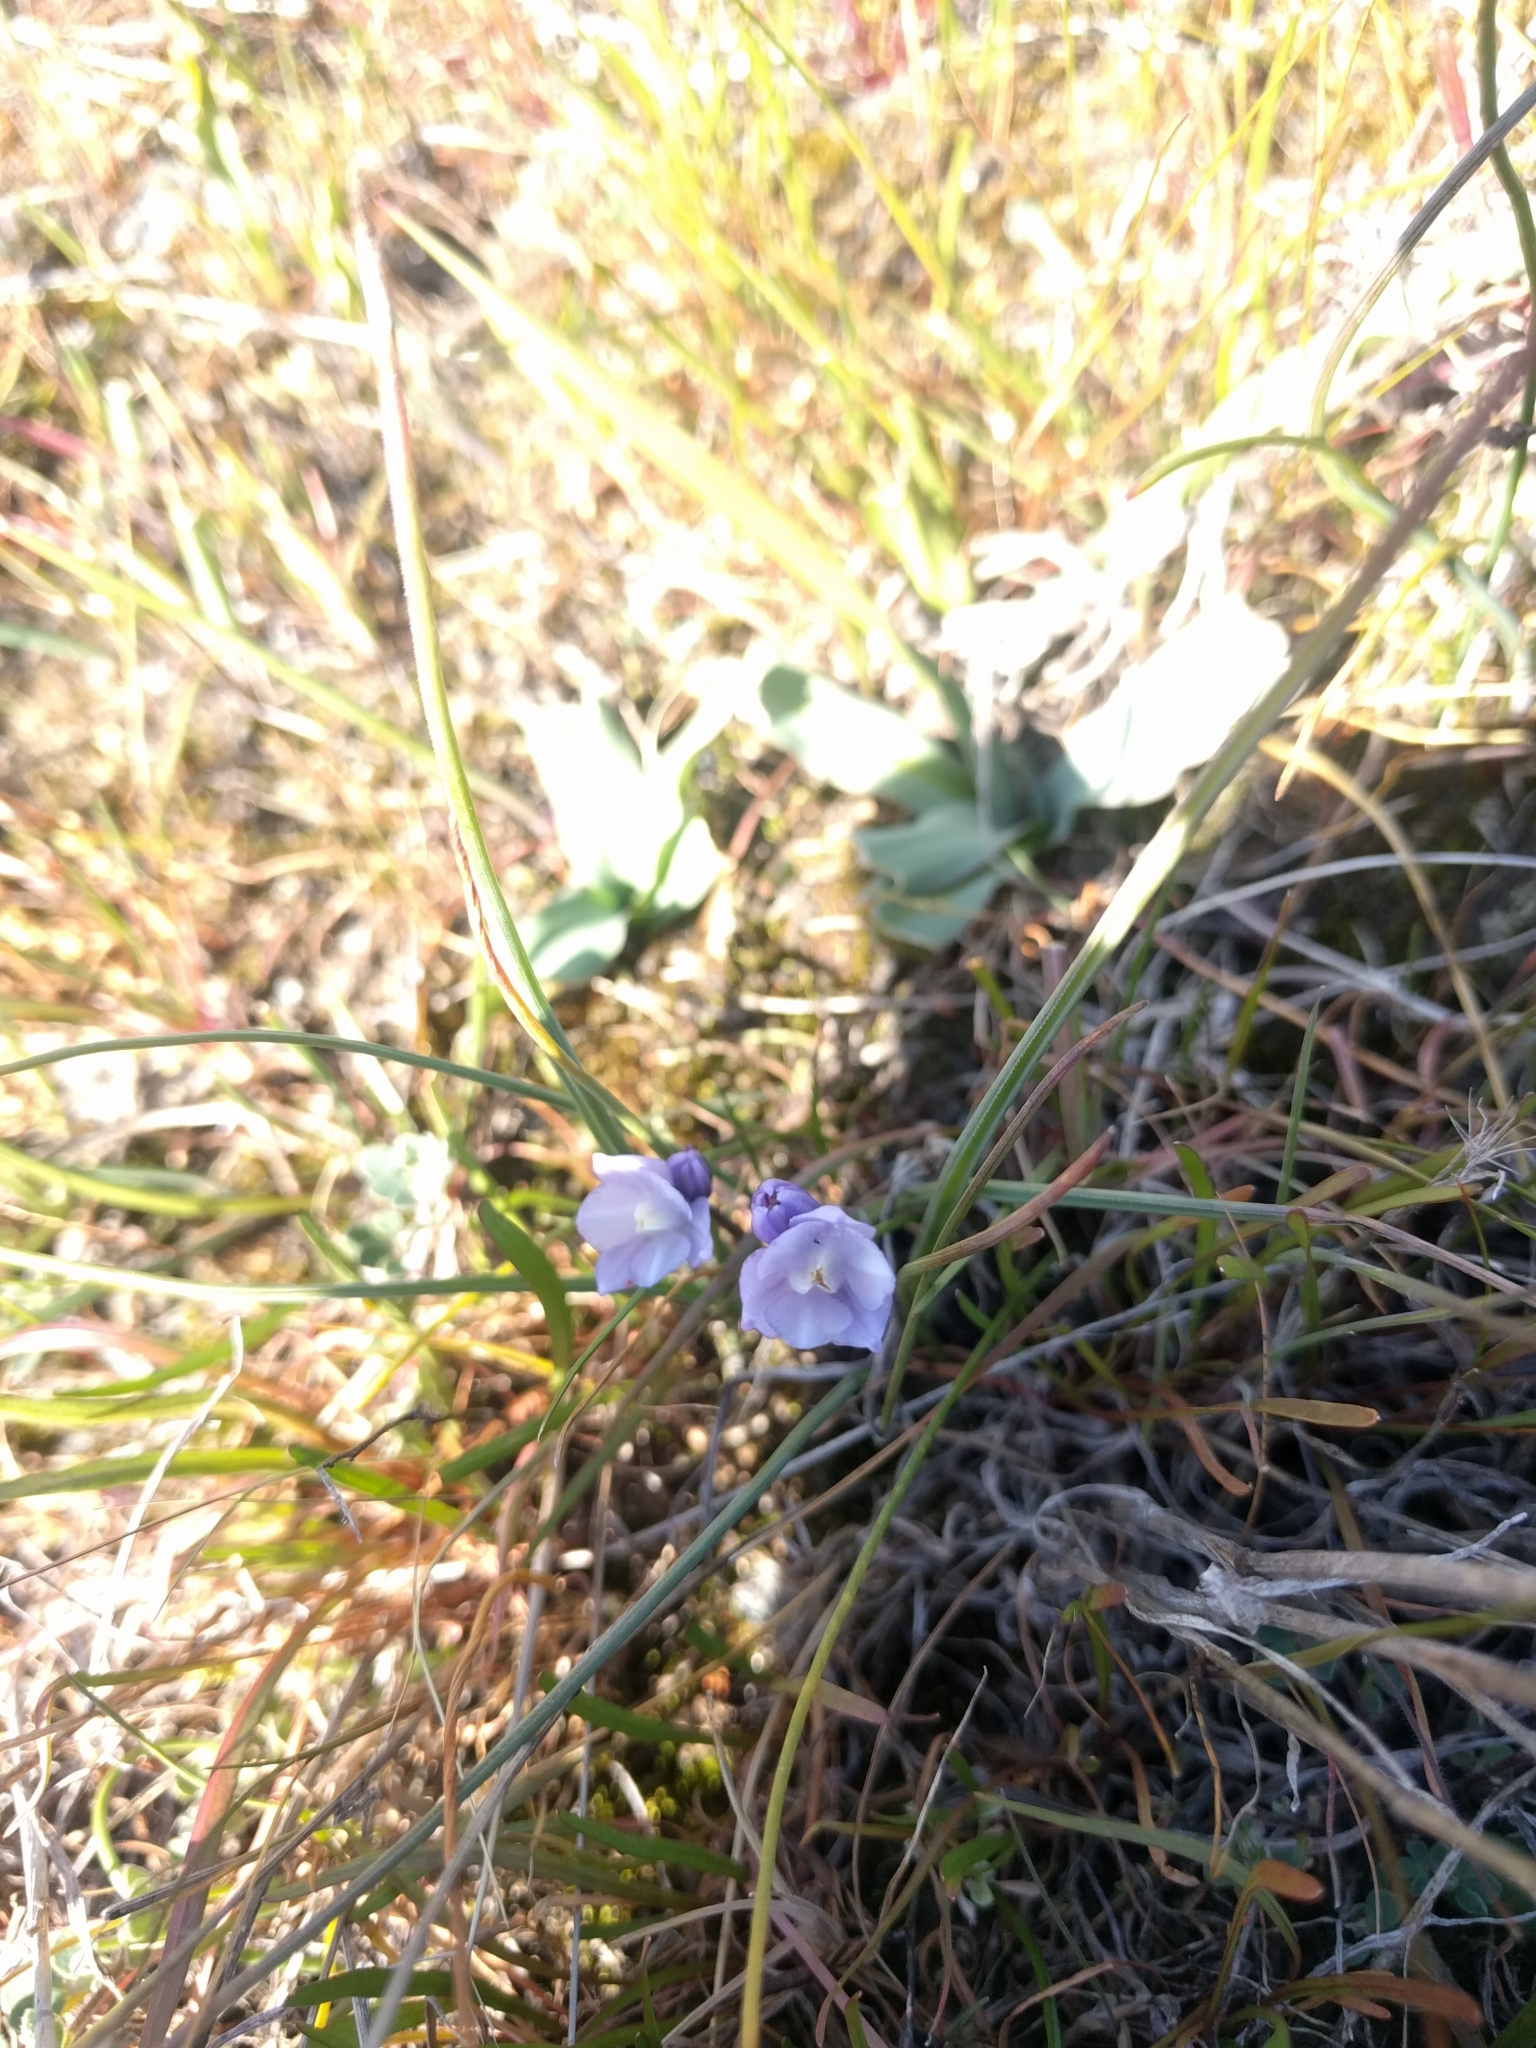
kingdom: Plantae
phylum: Tracheophyta
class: Liliopsida
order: Asparagales
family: Asparagaceae
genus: Dipterostemon
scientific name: Dipterostemon capitatus
